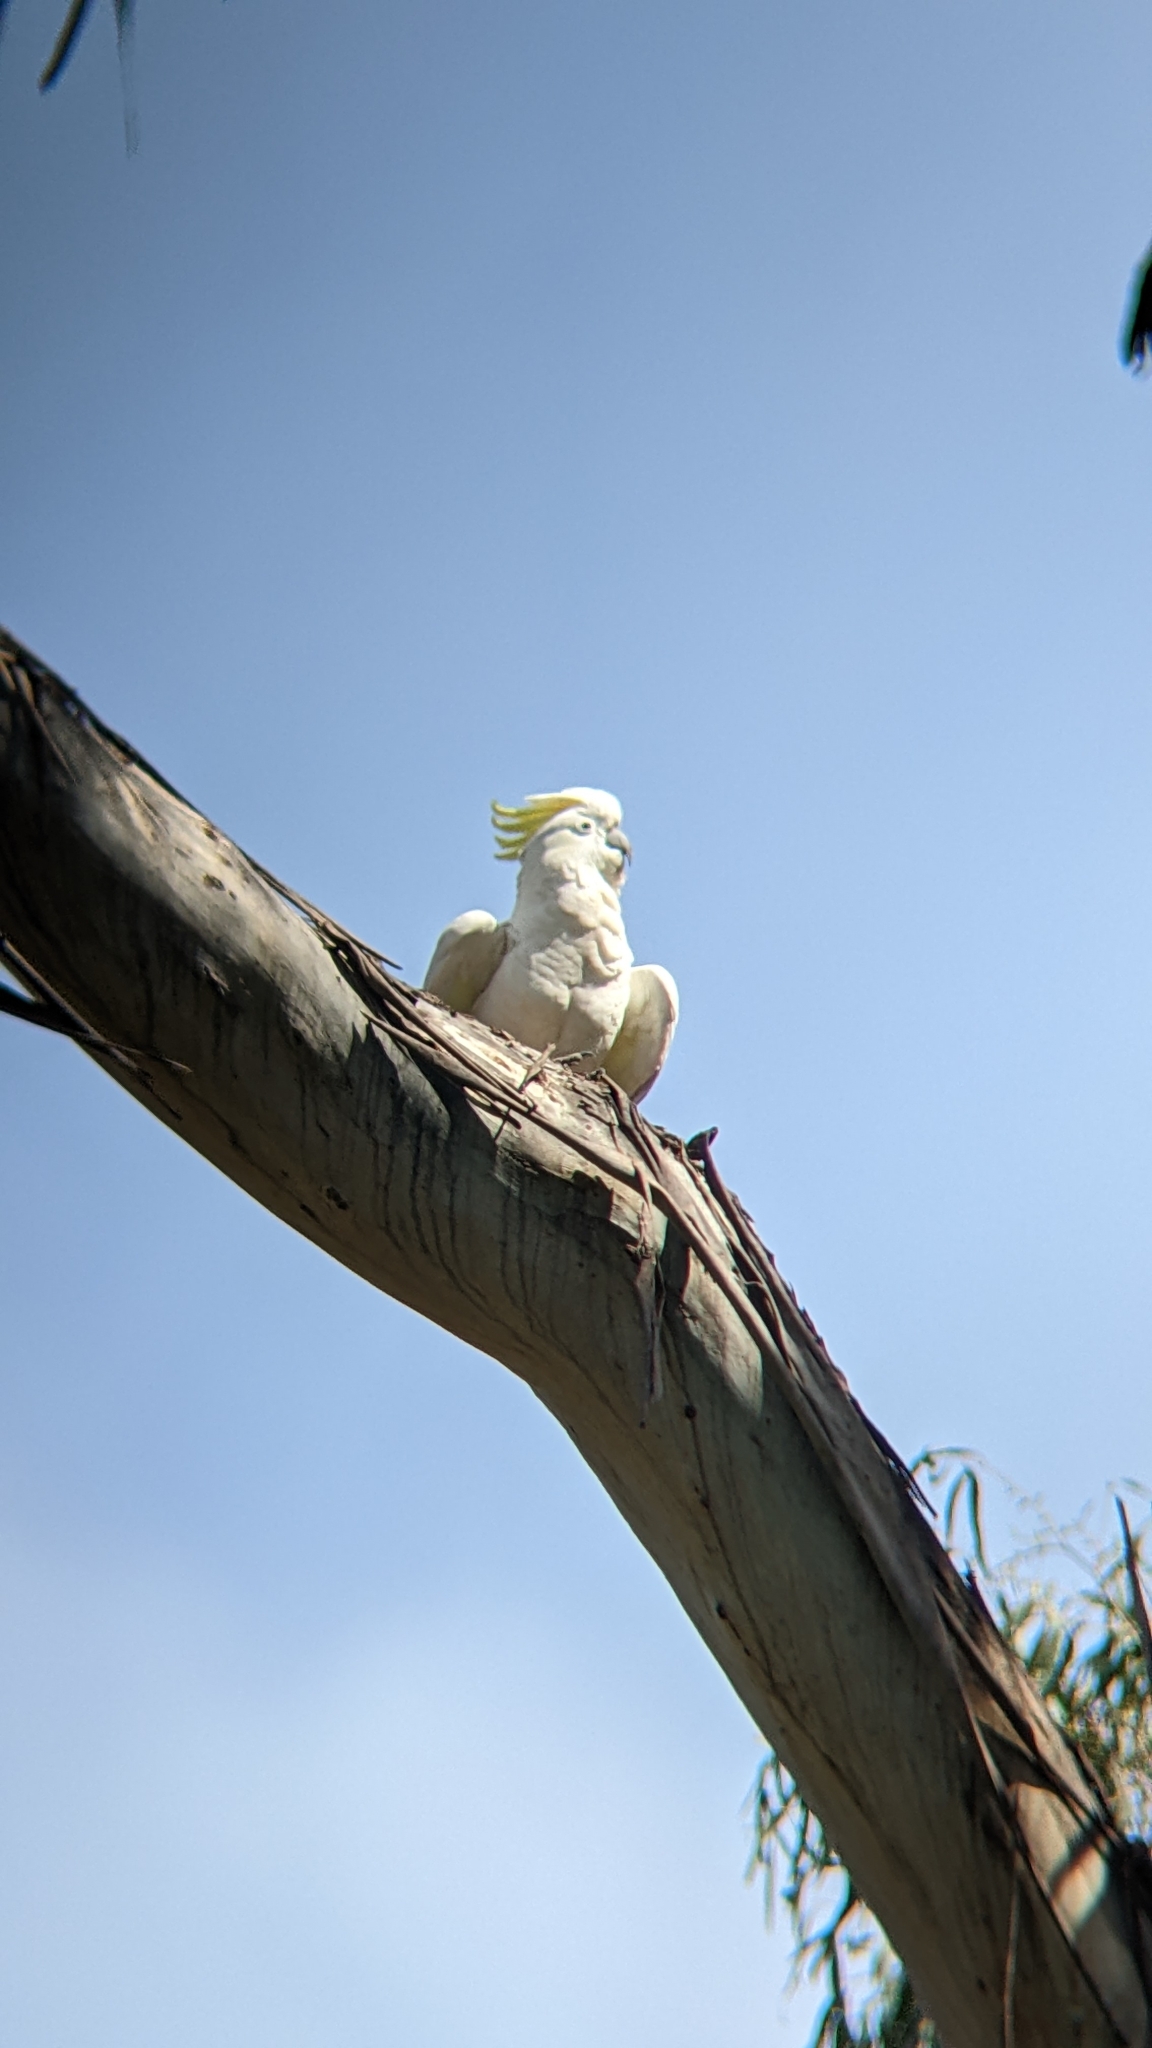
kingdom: Animalia
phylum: Chordata
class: Aves
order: Psittaciformes
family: Psittacidae
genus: Cacatua
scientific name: Cacatua galerita
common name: Sulphur-crested cockatoo
